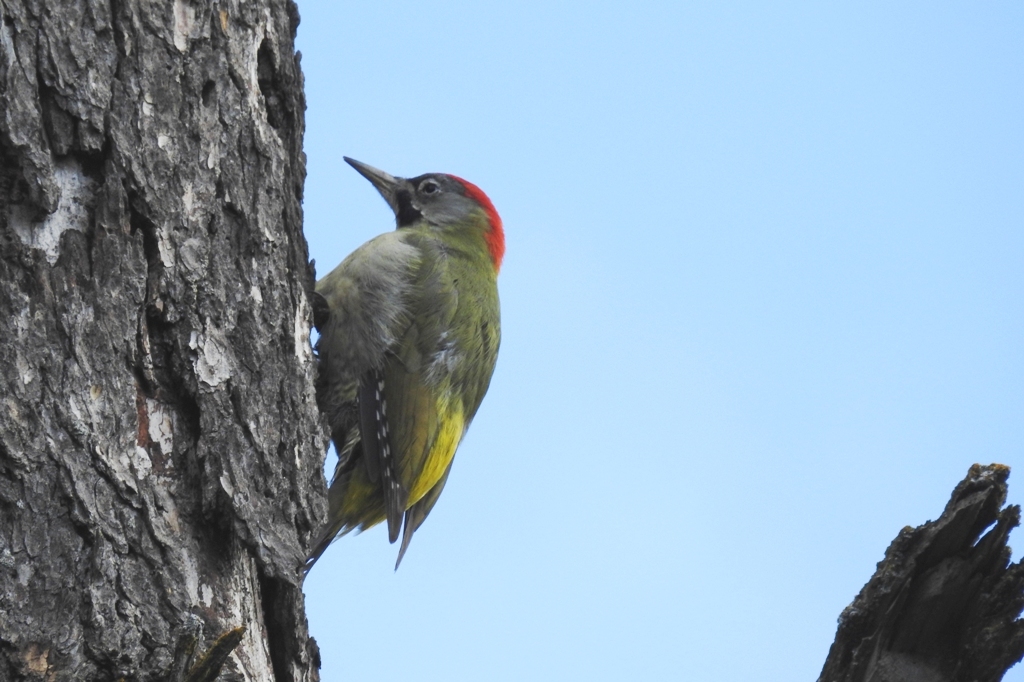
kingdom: Animalia
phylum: Chordata
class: Aves
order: Piciformes
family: Picidae
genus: Picus
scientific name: Picus vaillantii
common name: Levaillant's woodpecker
